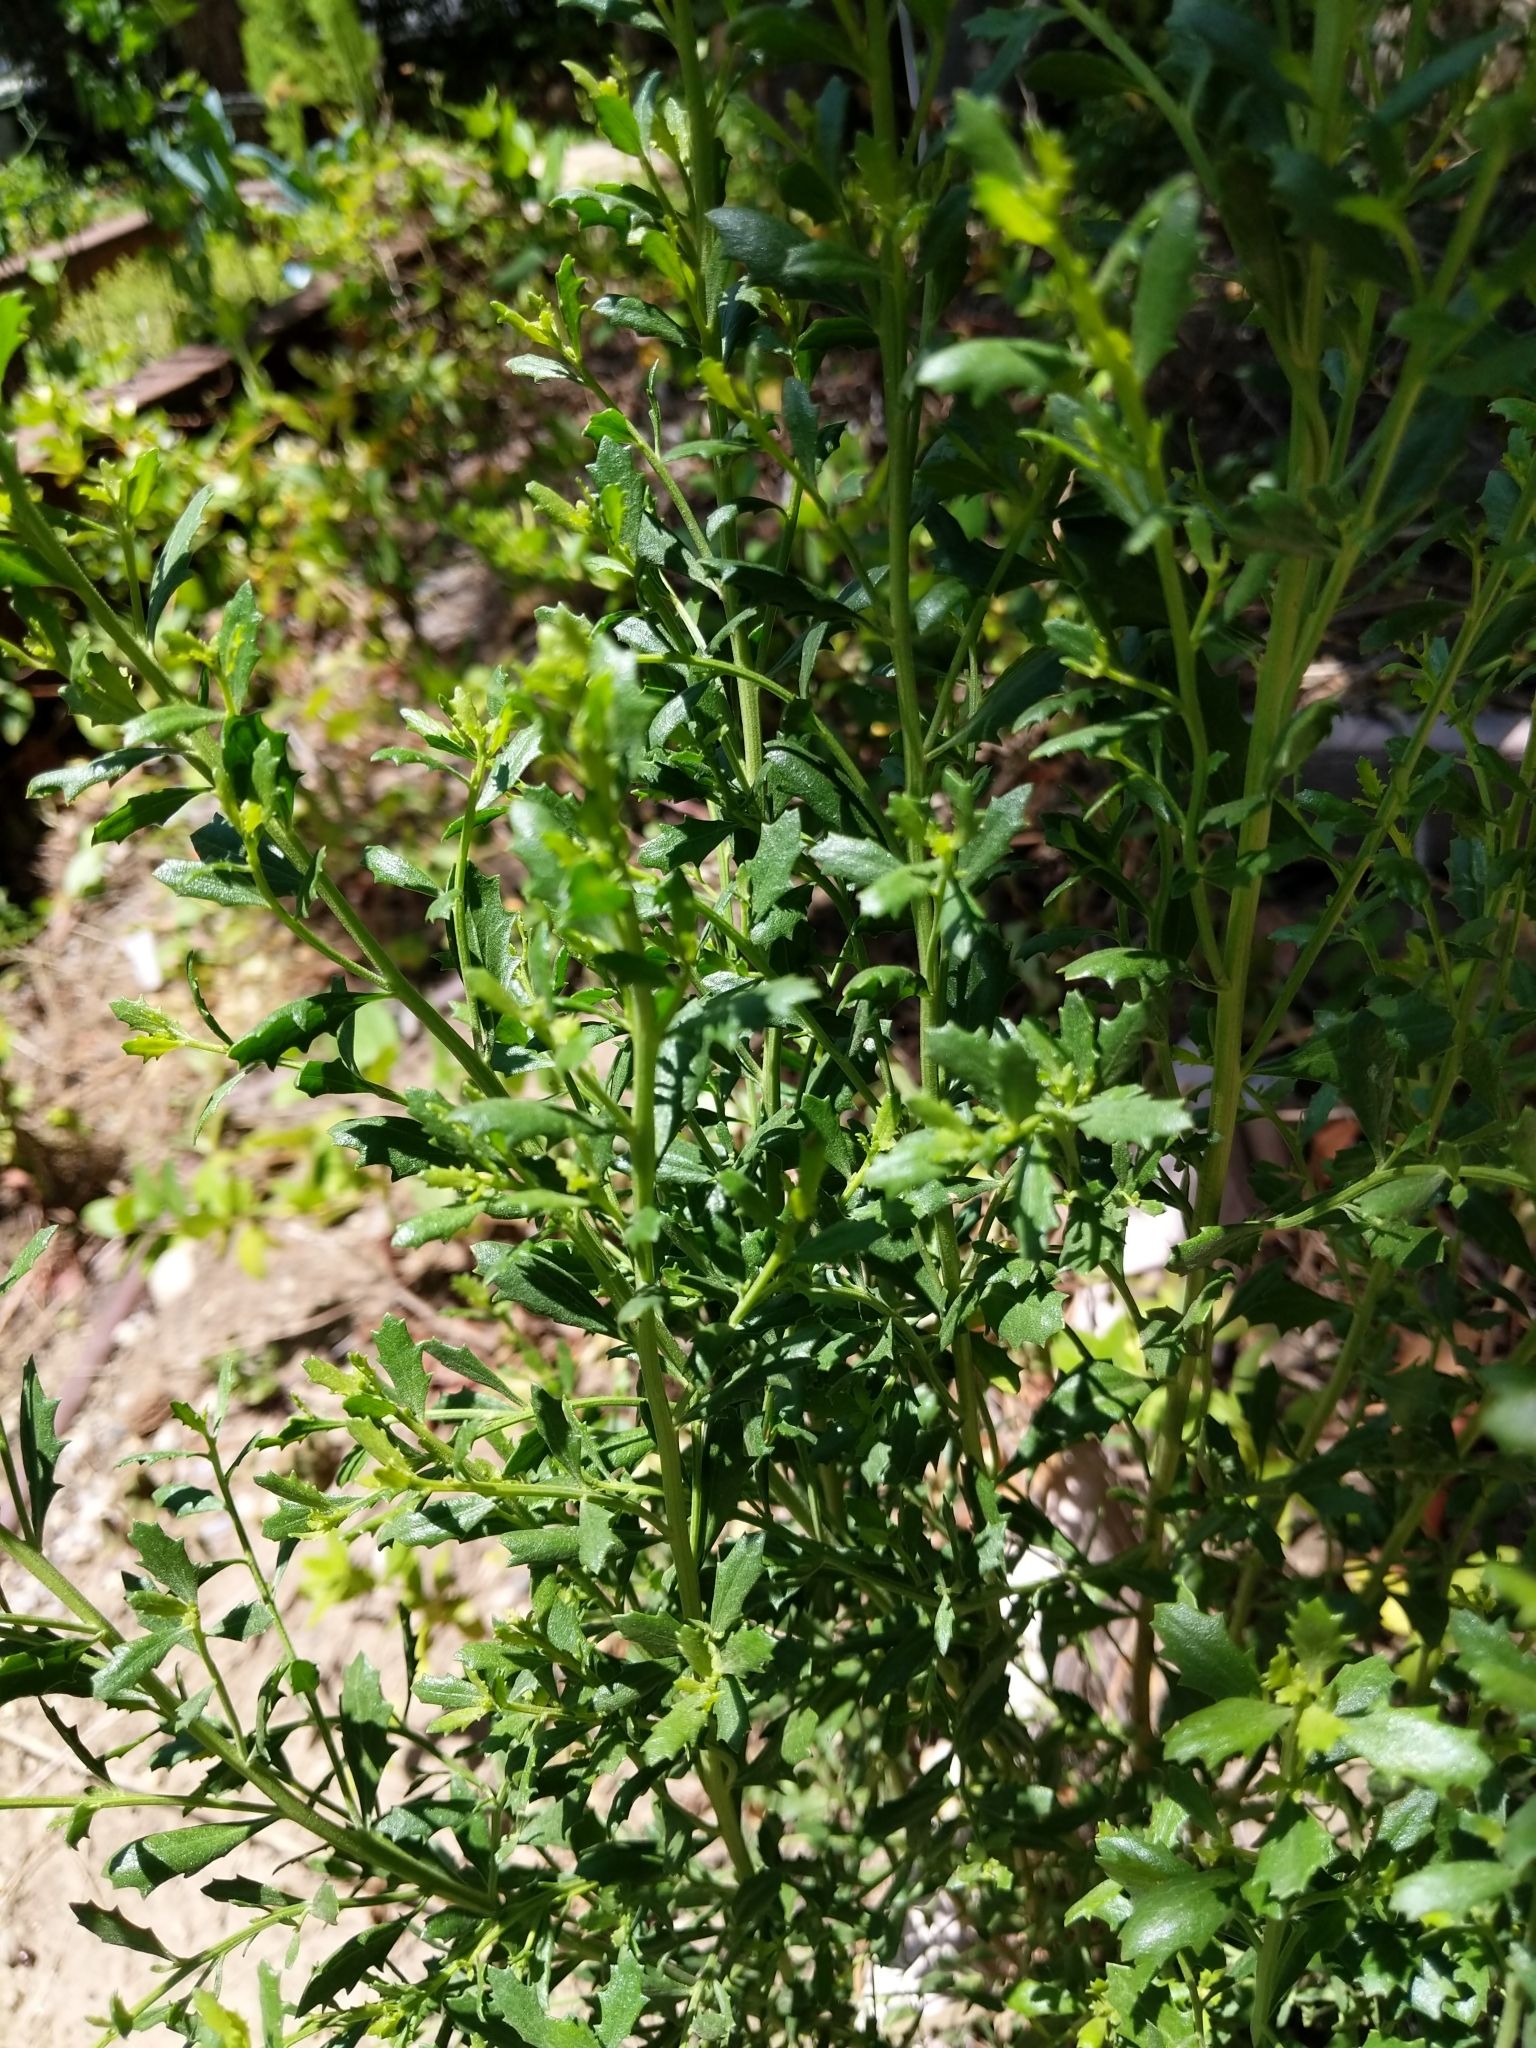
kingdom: Plantae
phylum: Tracheophyta
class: Magnoliopsida
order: Asterales
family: Asteraceae
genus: Baccharis
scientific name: Baccharis pilularis
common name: Coyotebrush
